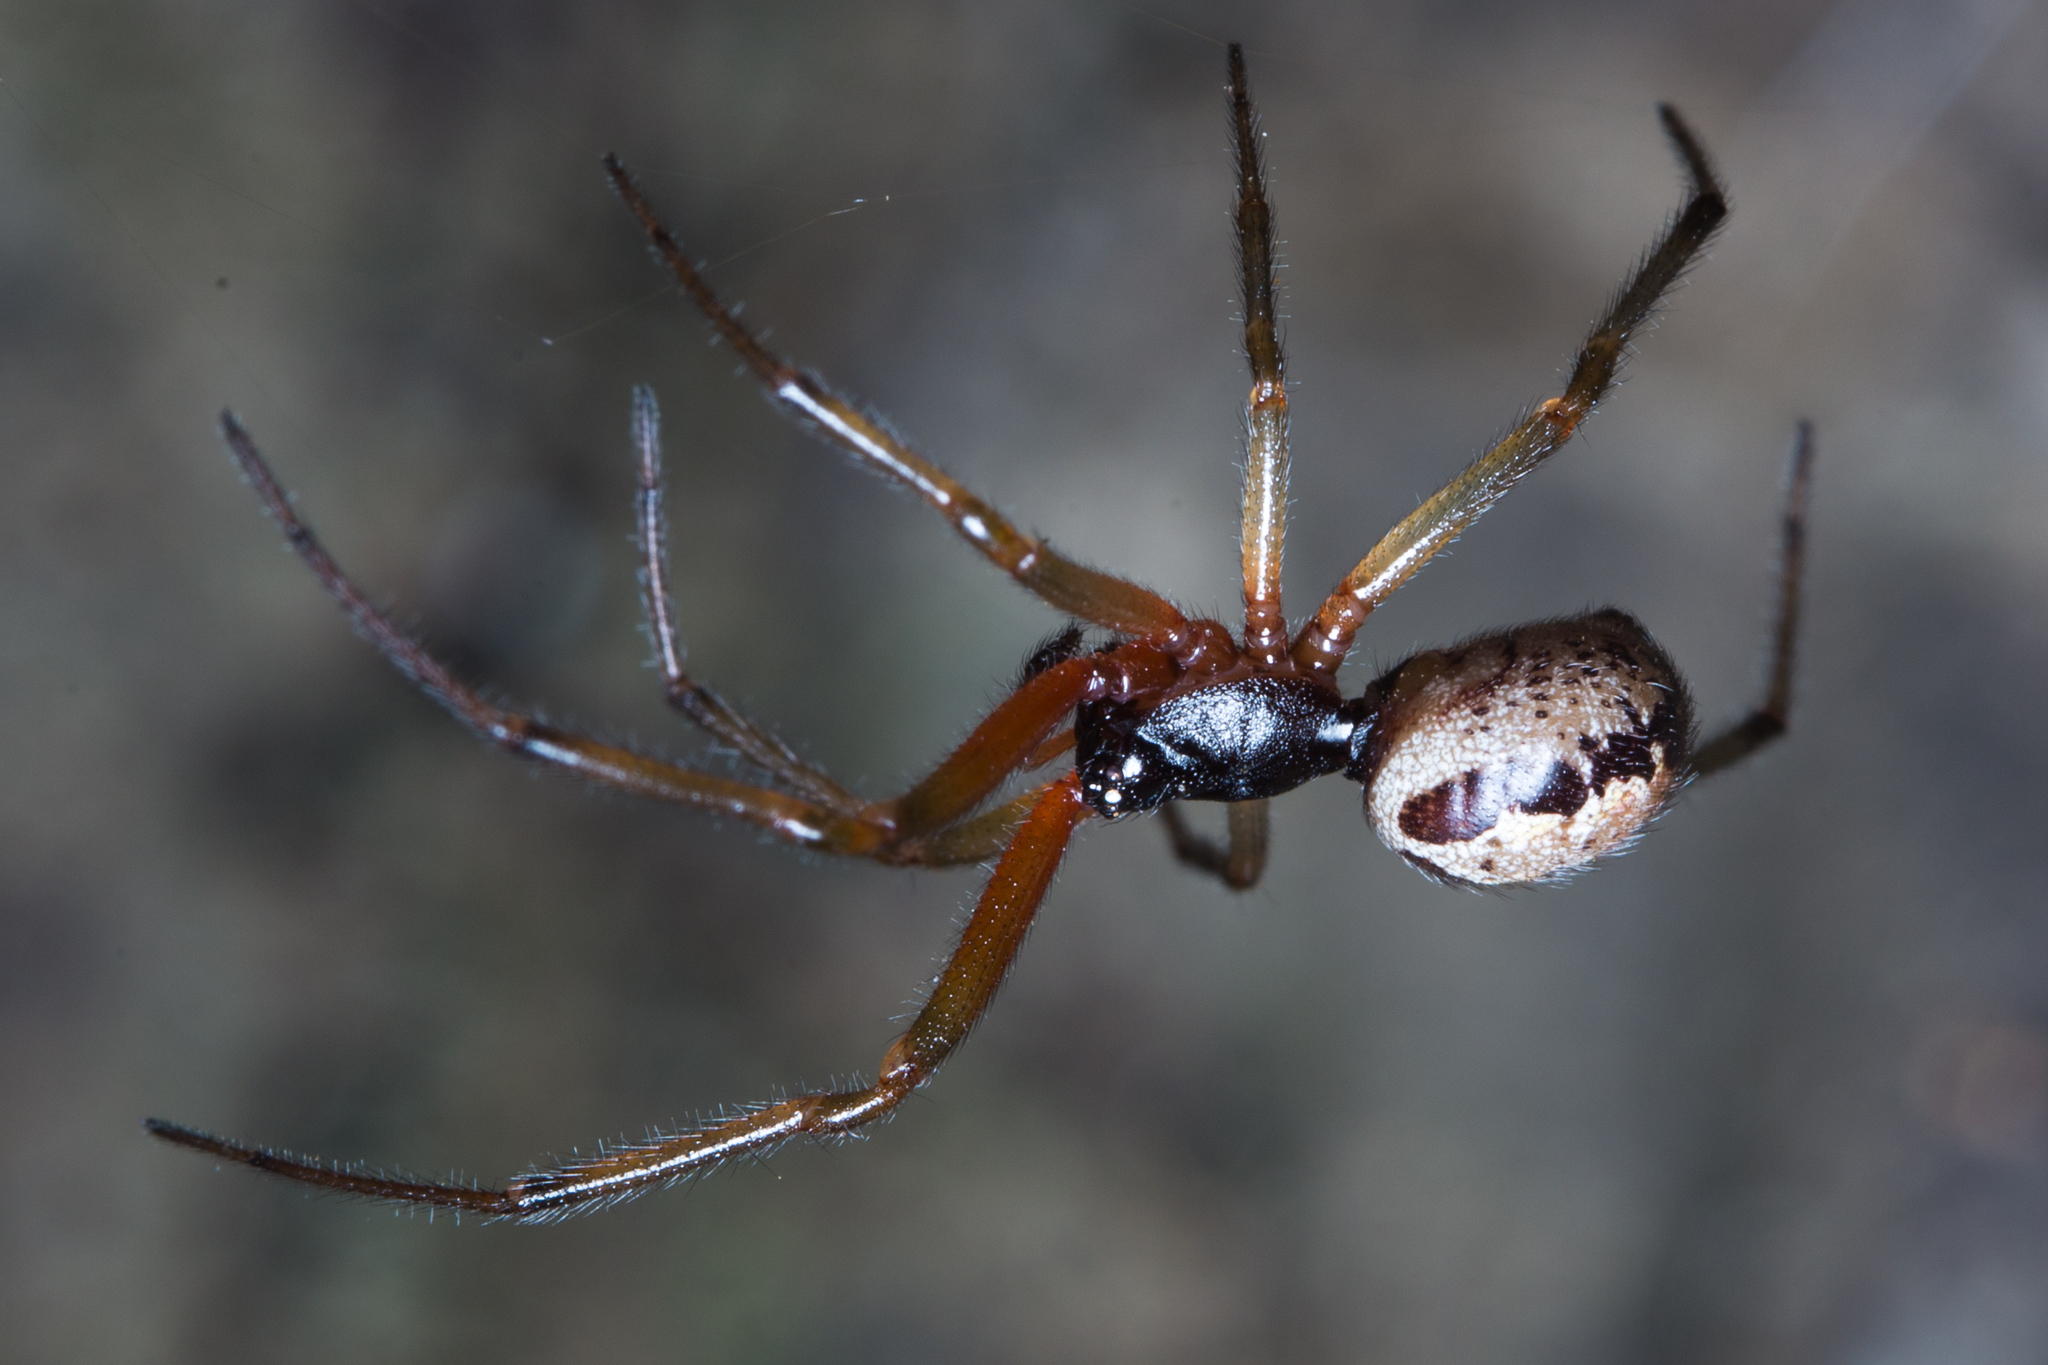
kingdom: Animalia
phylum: Arthropoda
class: Arachnida
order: Araneae
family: Theridiidae
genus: Steatoda
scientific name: Steatoda nobilis
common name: Cobweb weaver
